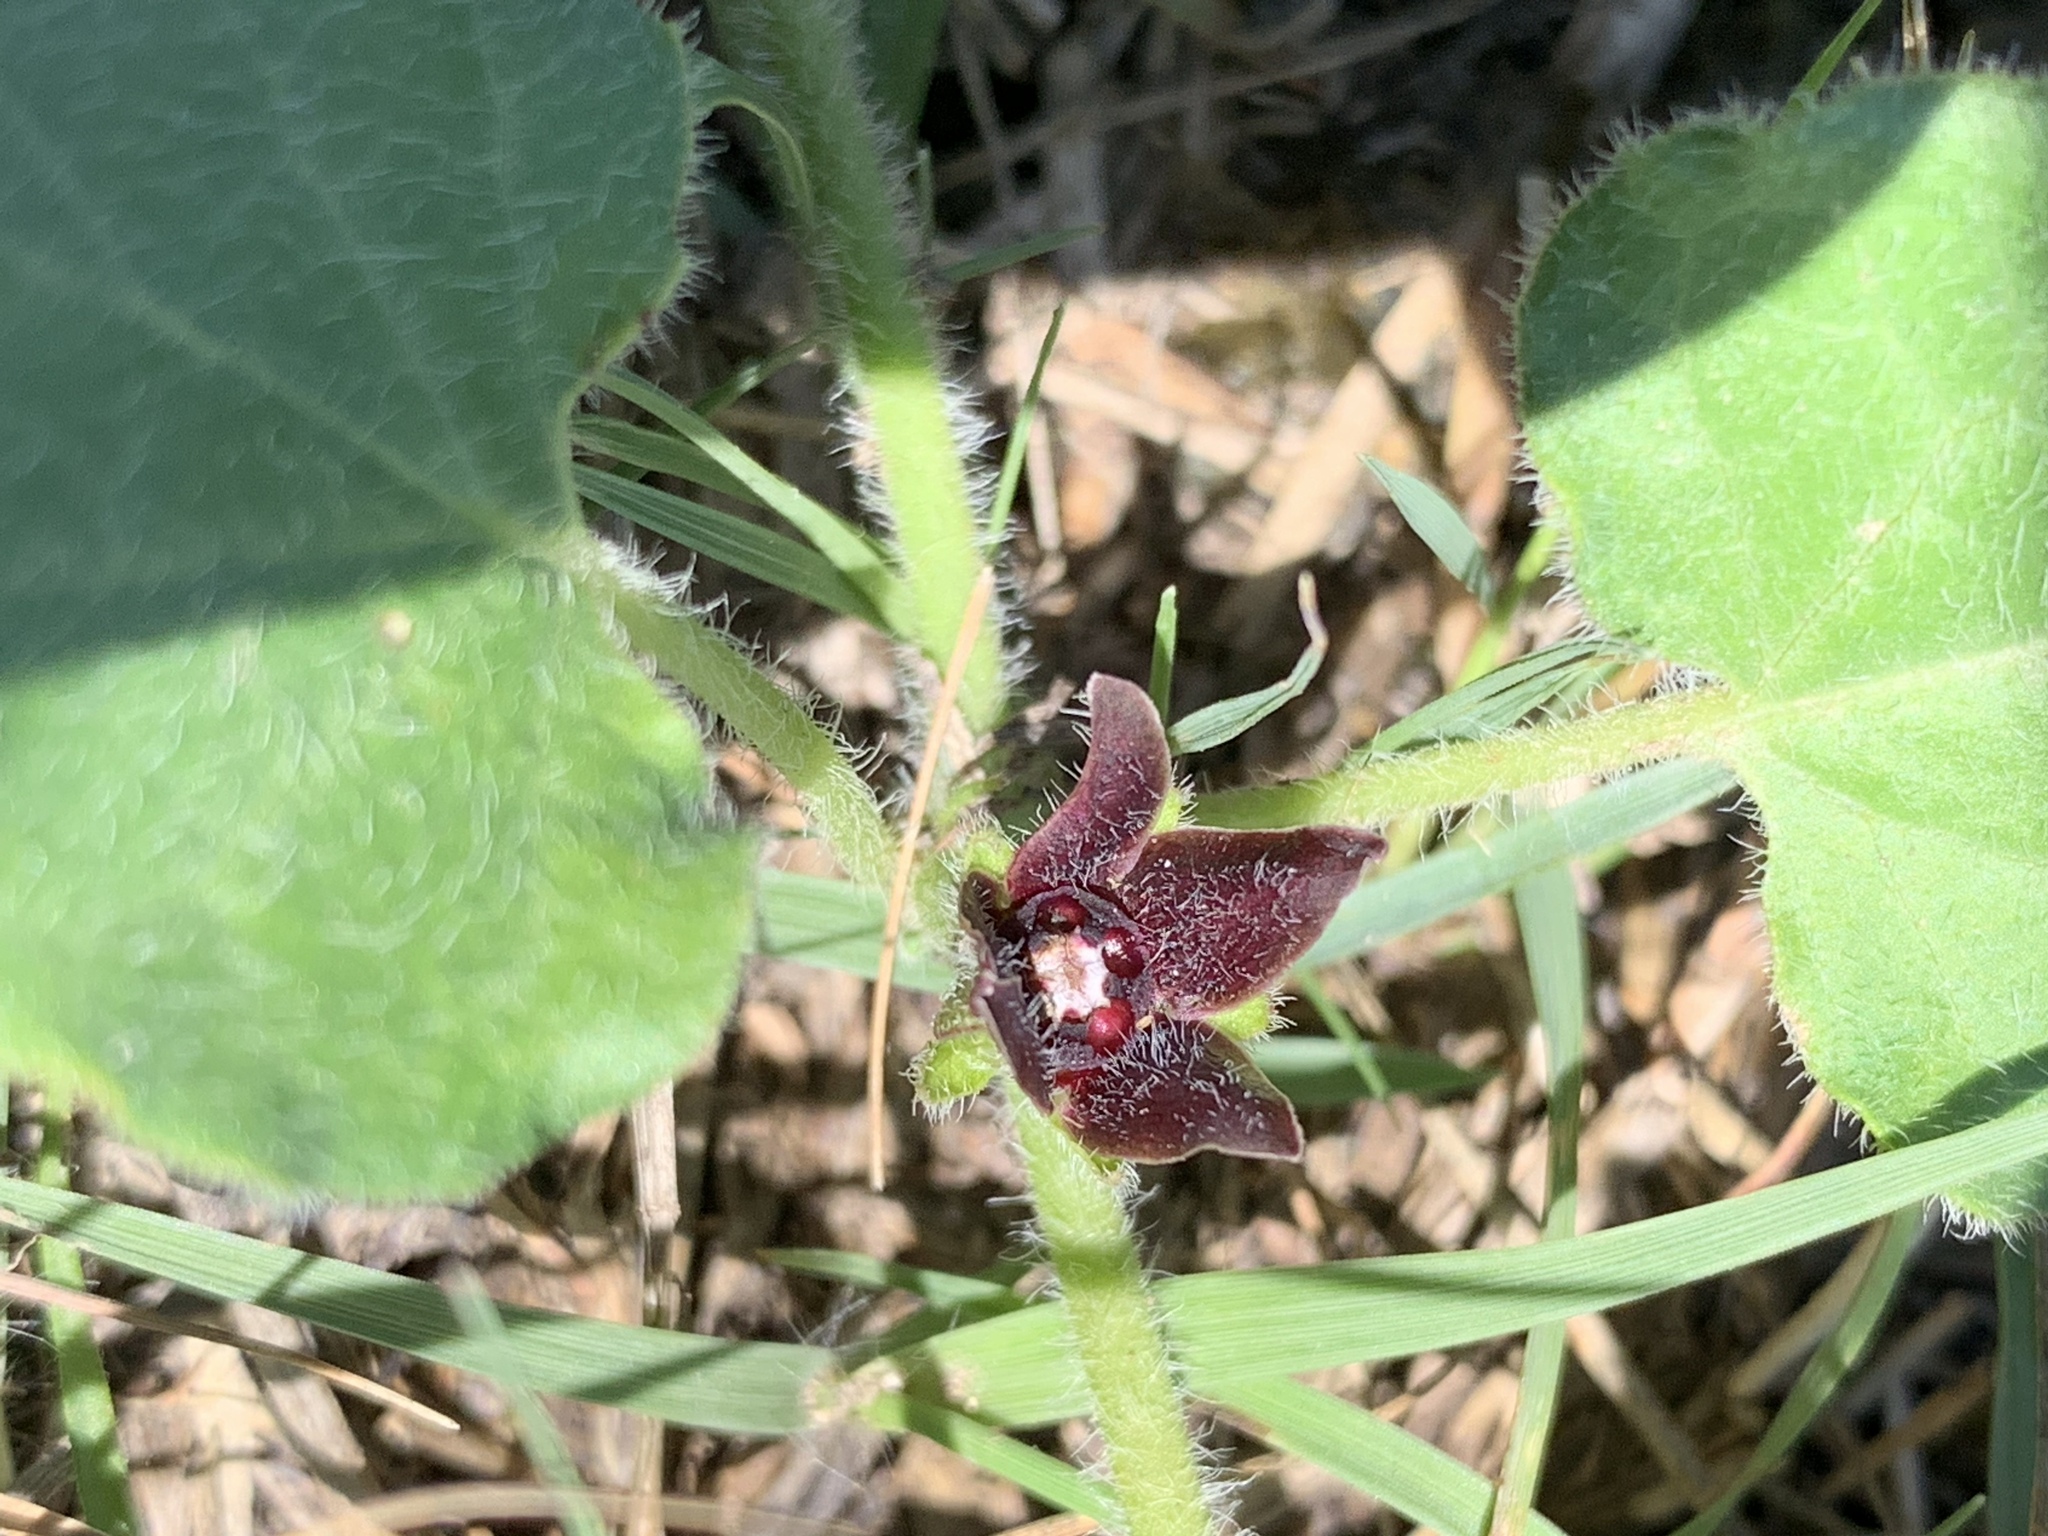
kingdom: Plantae
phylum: Tracheophyta
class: Magnoliopsida
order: Gentianales
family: Apocynaceae
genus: Chthamalia
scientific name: Chthamalia biflora
